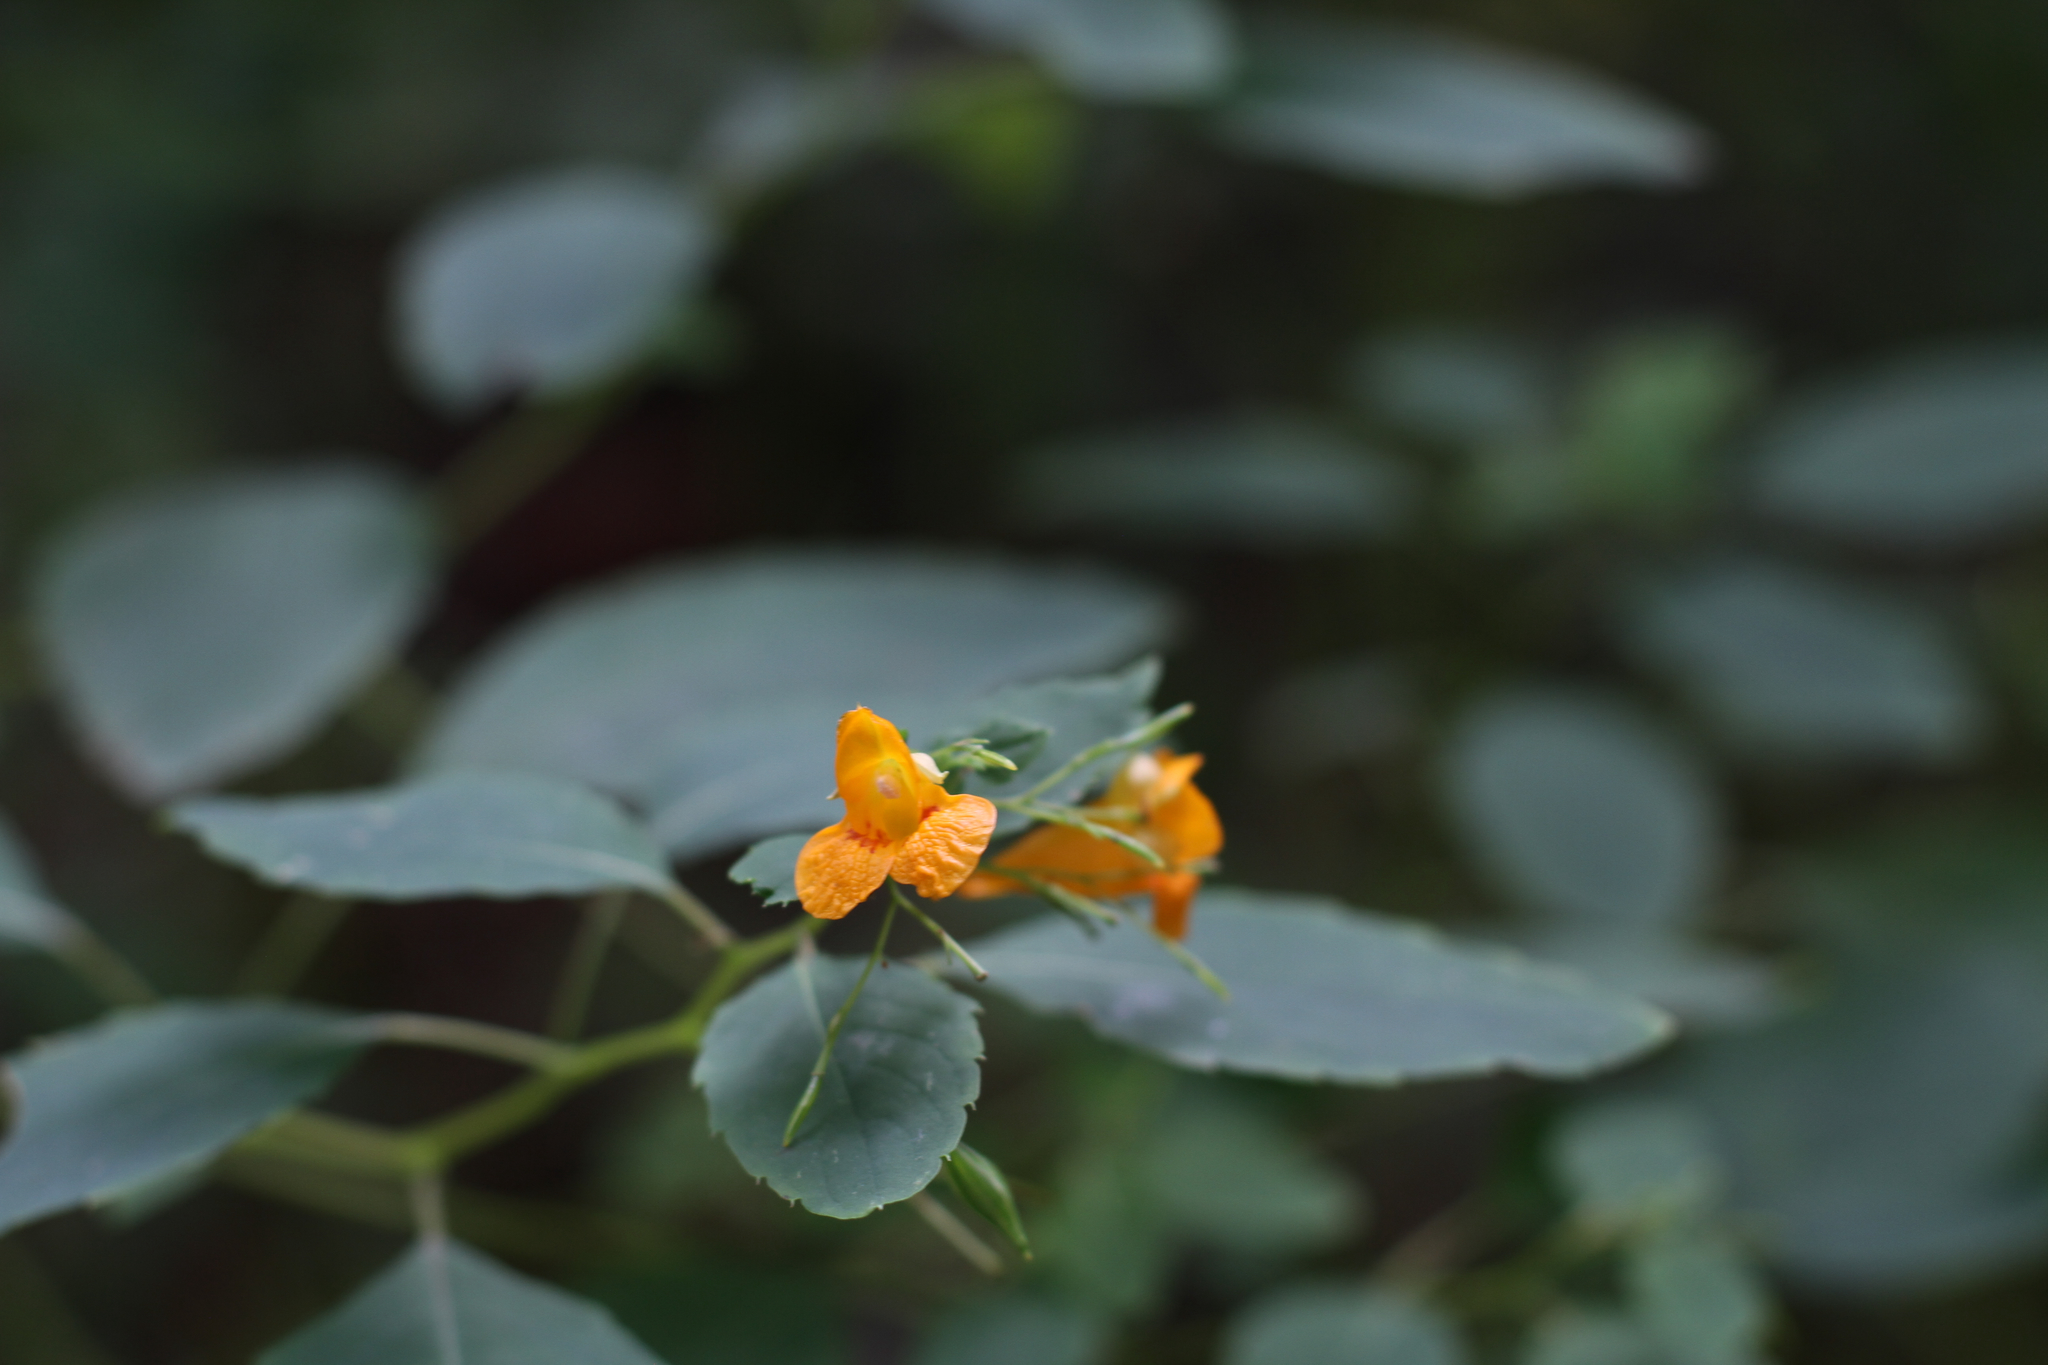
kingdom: Plantae
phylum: Tracheophyta
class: Magnoliopsida
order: Ericales
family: Balsaminaceae
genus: Impatiens
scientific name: Impatiens capensis
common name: Orange balsam
